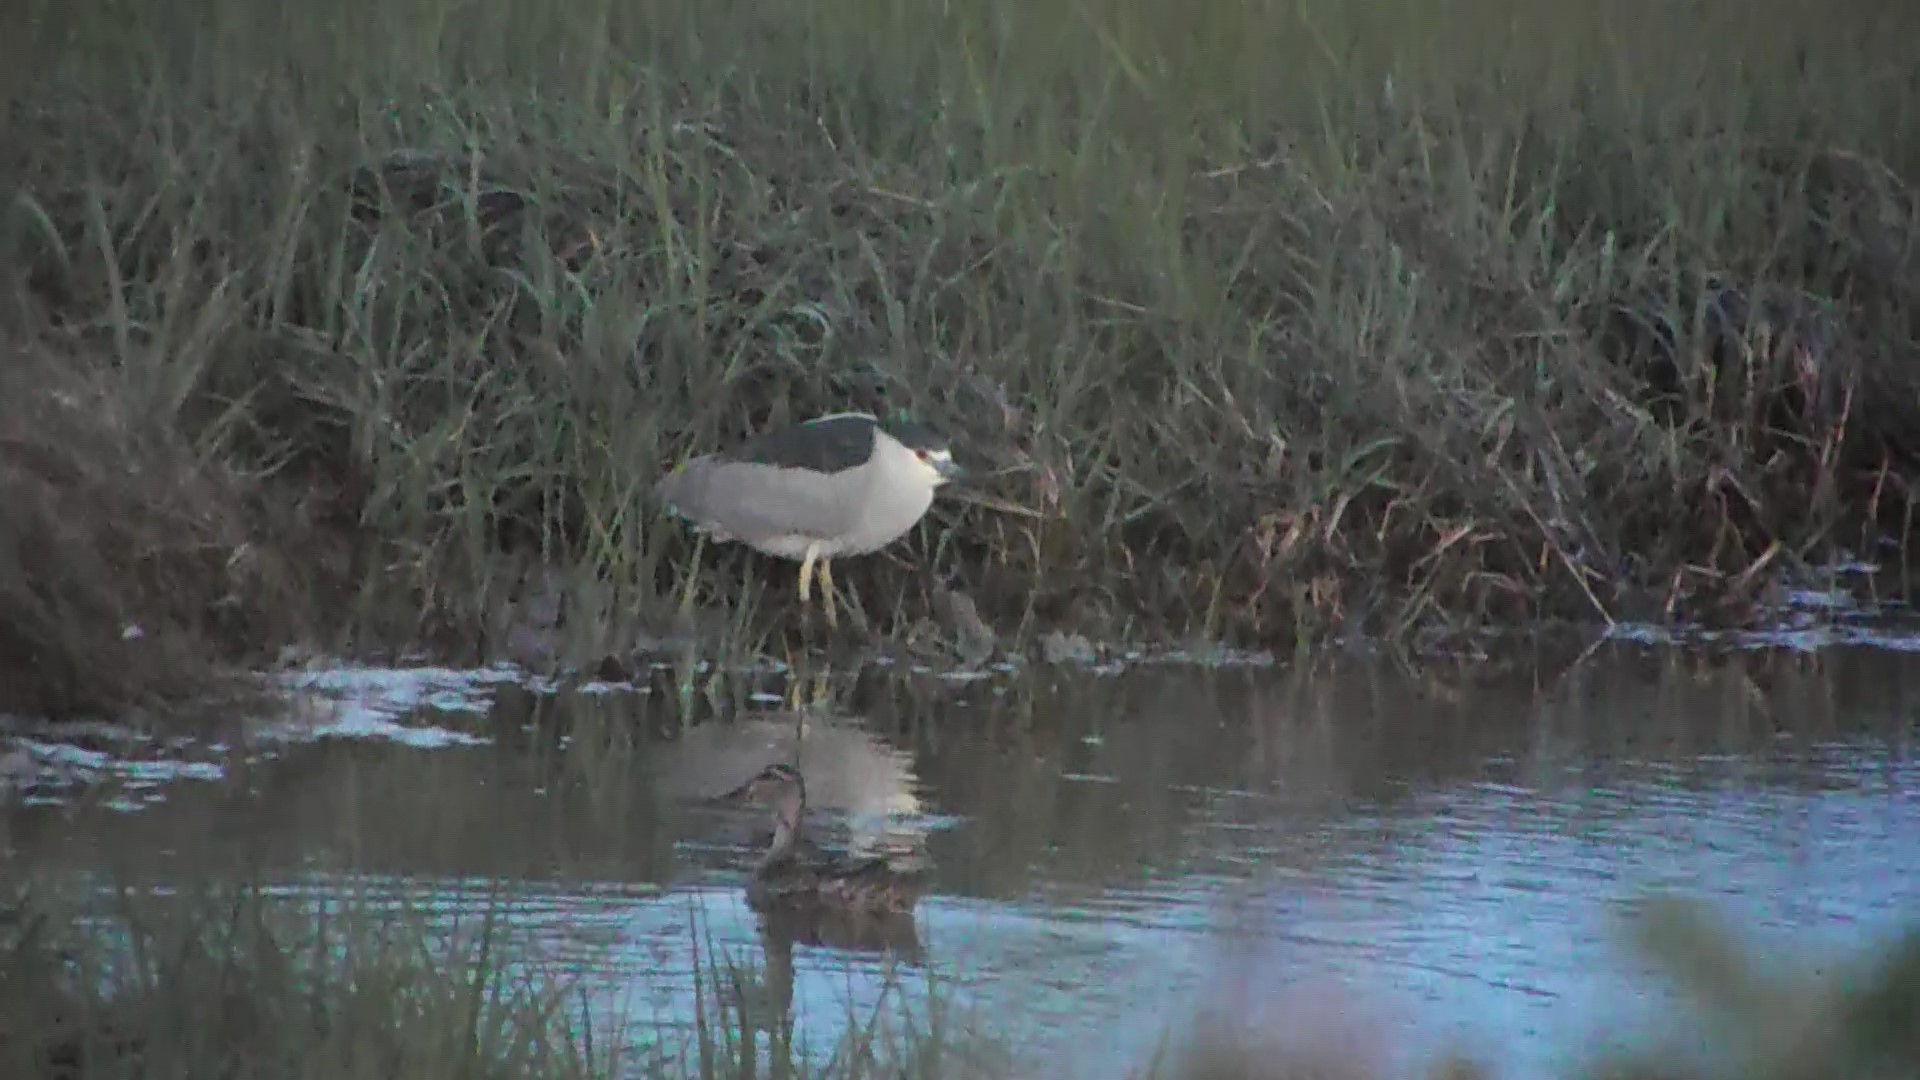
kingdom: Animalia
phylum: Chordata
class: Aves
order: Pelecaniformes
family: Ardeidae
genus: Nycticorax
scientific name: Nycticorax nycticorax
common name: Black-crowned night heron
